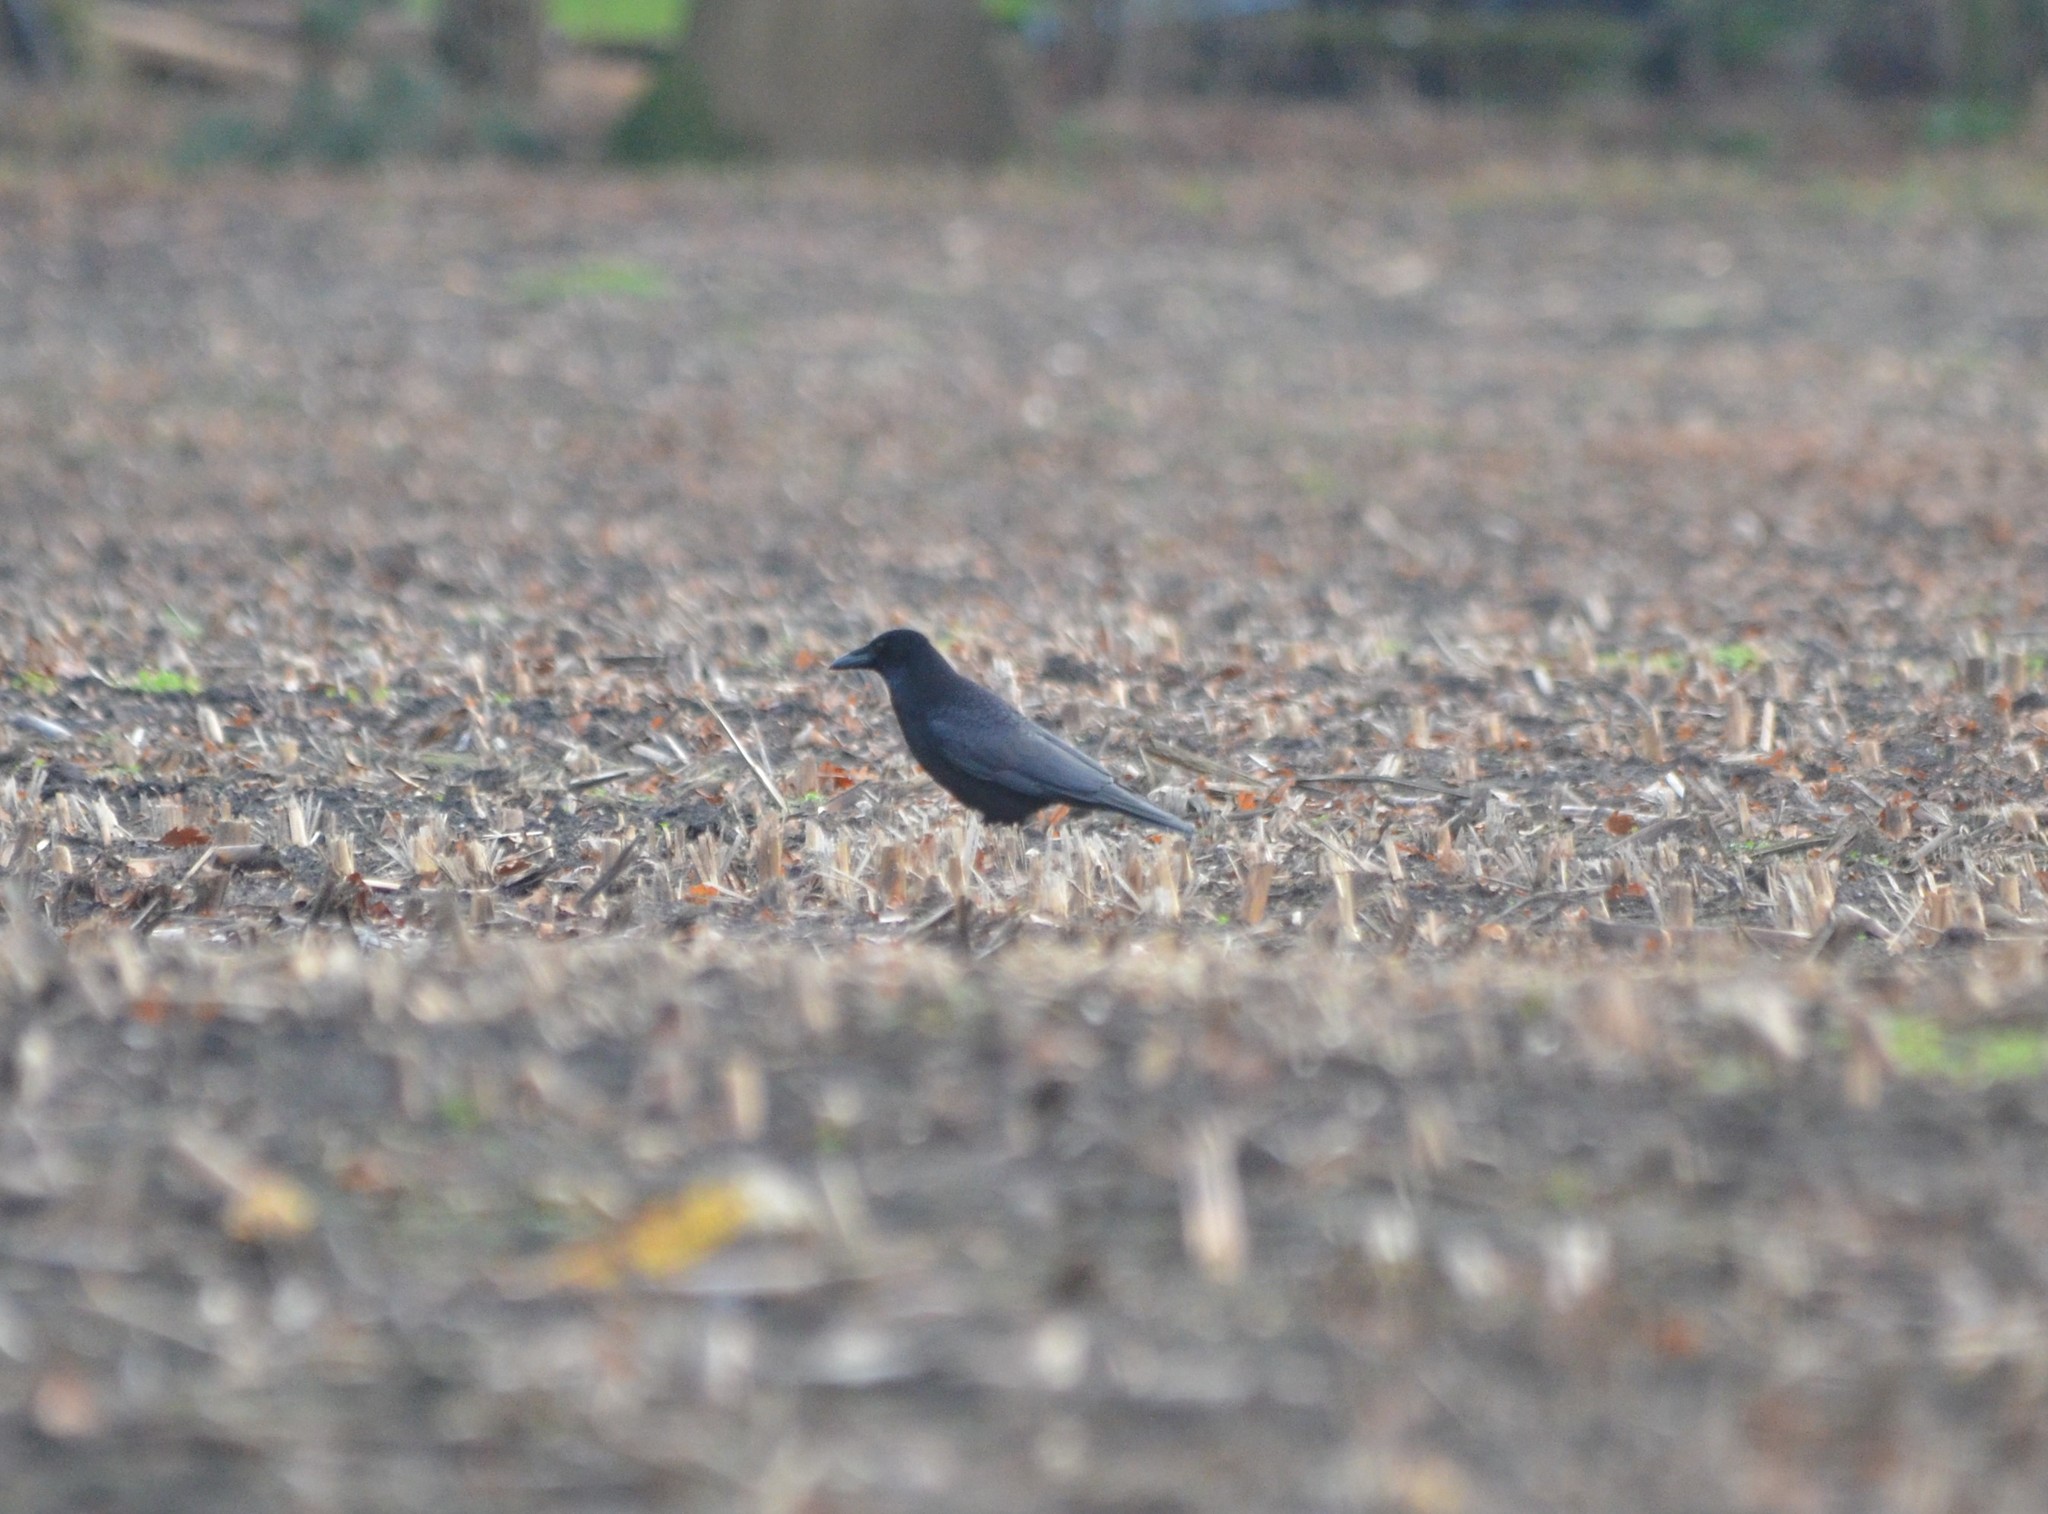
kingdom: Animalia
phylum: Chordata
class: Aves
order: Passeriformes
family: Corvidae
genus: Corvus
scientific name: Corvus corone
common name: Carrion crow
